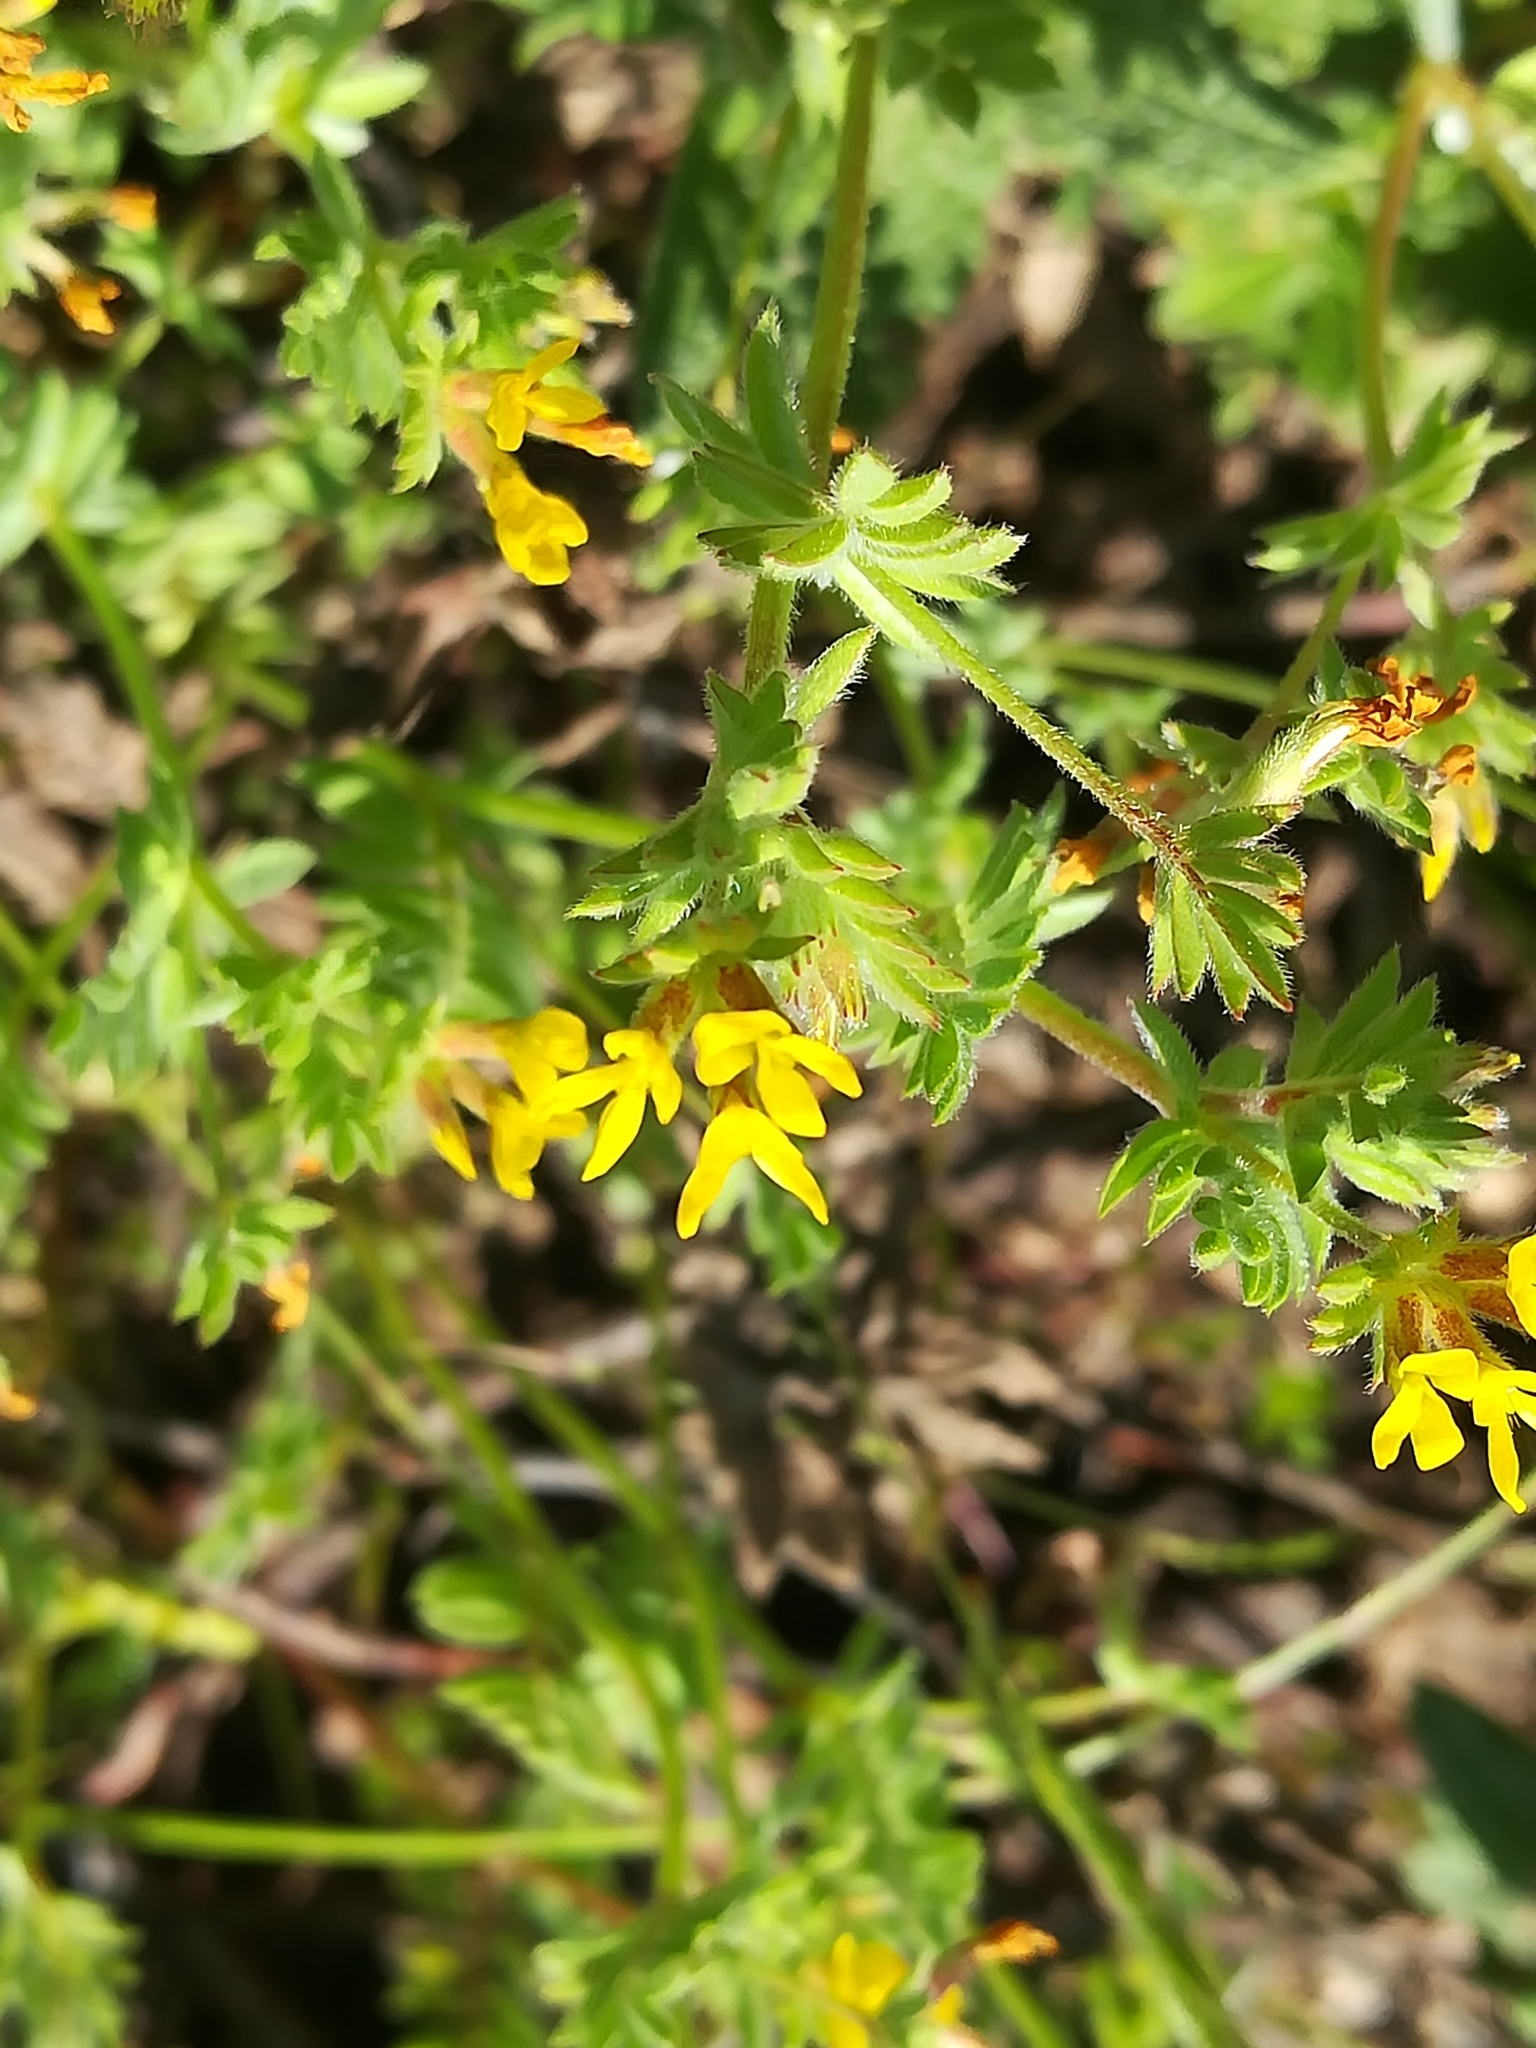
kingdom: Plantae
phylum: Tracheophyta
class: Magnoliopsida
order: Fabales
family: Fabaceae
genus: Ornithopus
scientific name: Ornithopus compressus
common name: Yellow serradella
